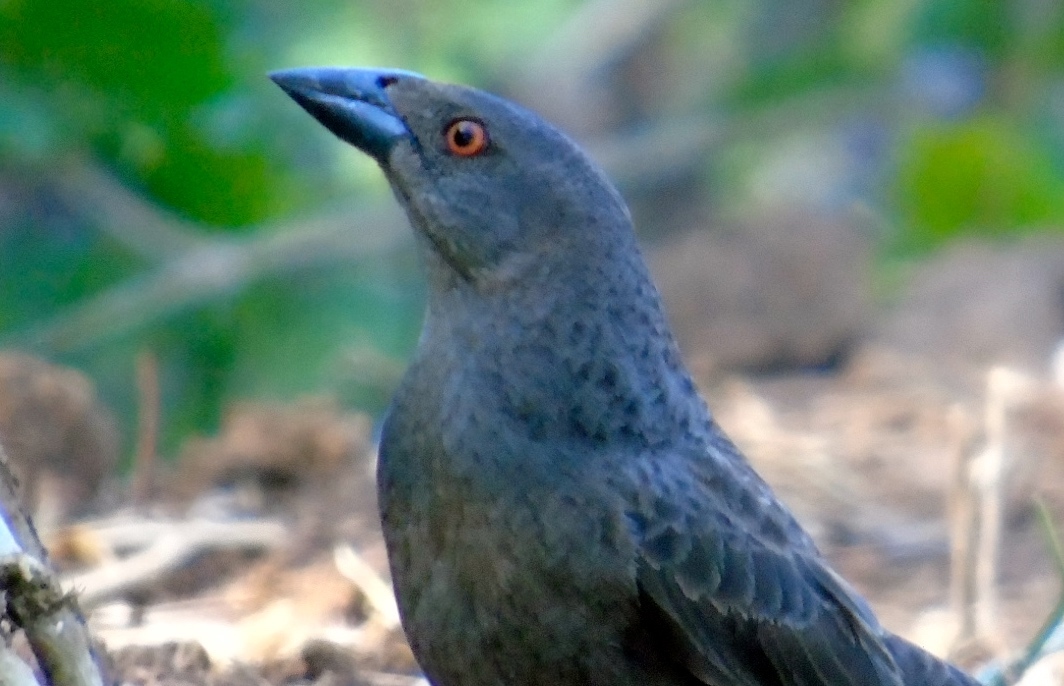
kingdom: Animalia
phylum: Chordata
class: Aves
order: Passeriformes
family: Icteridae
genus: Molothrus
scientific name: Molothrus aeneus
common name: Bronzed cowbird
